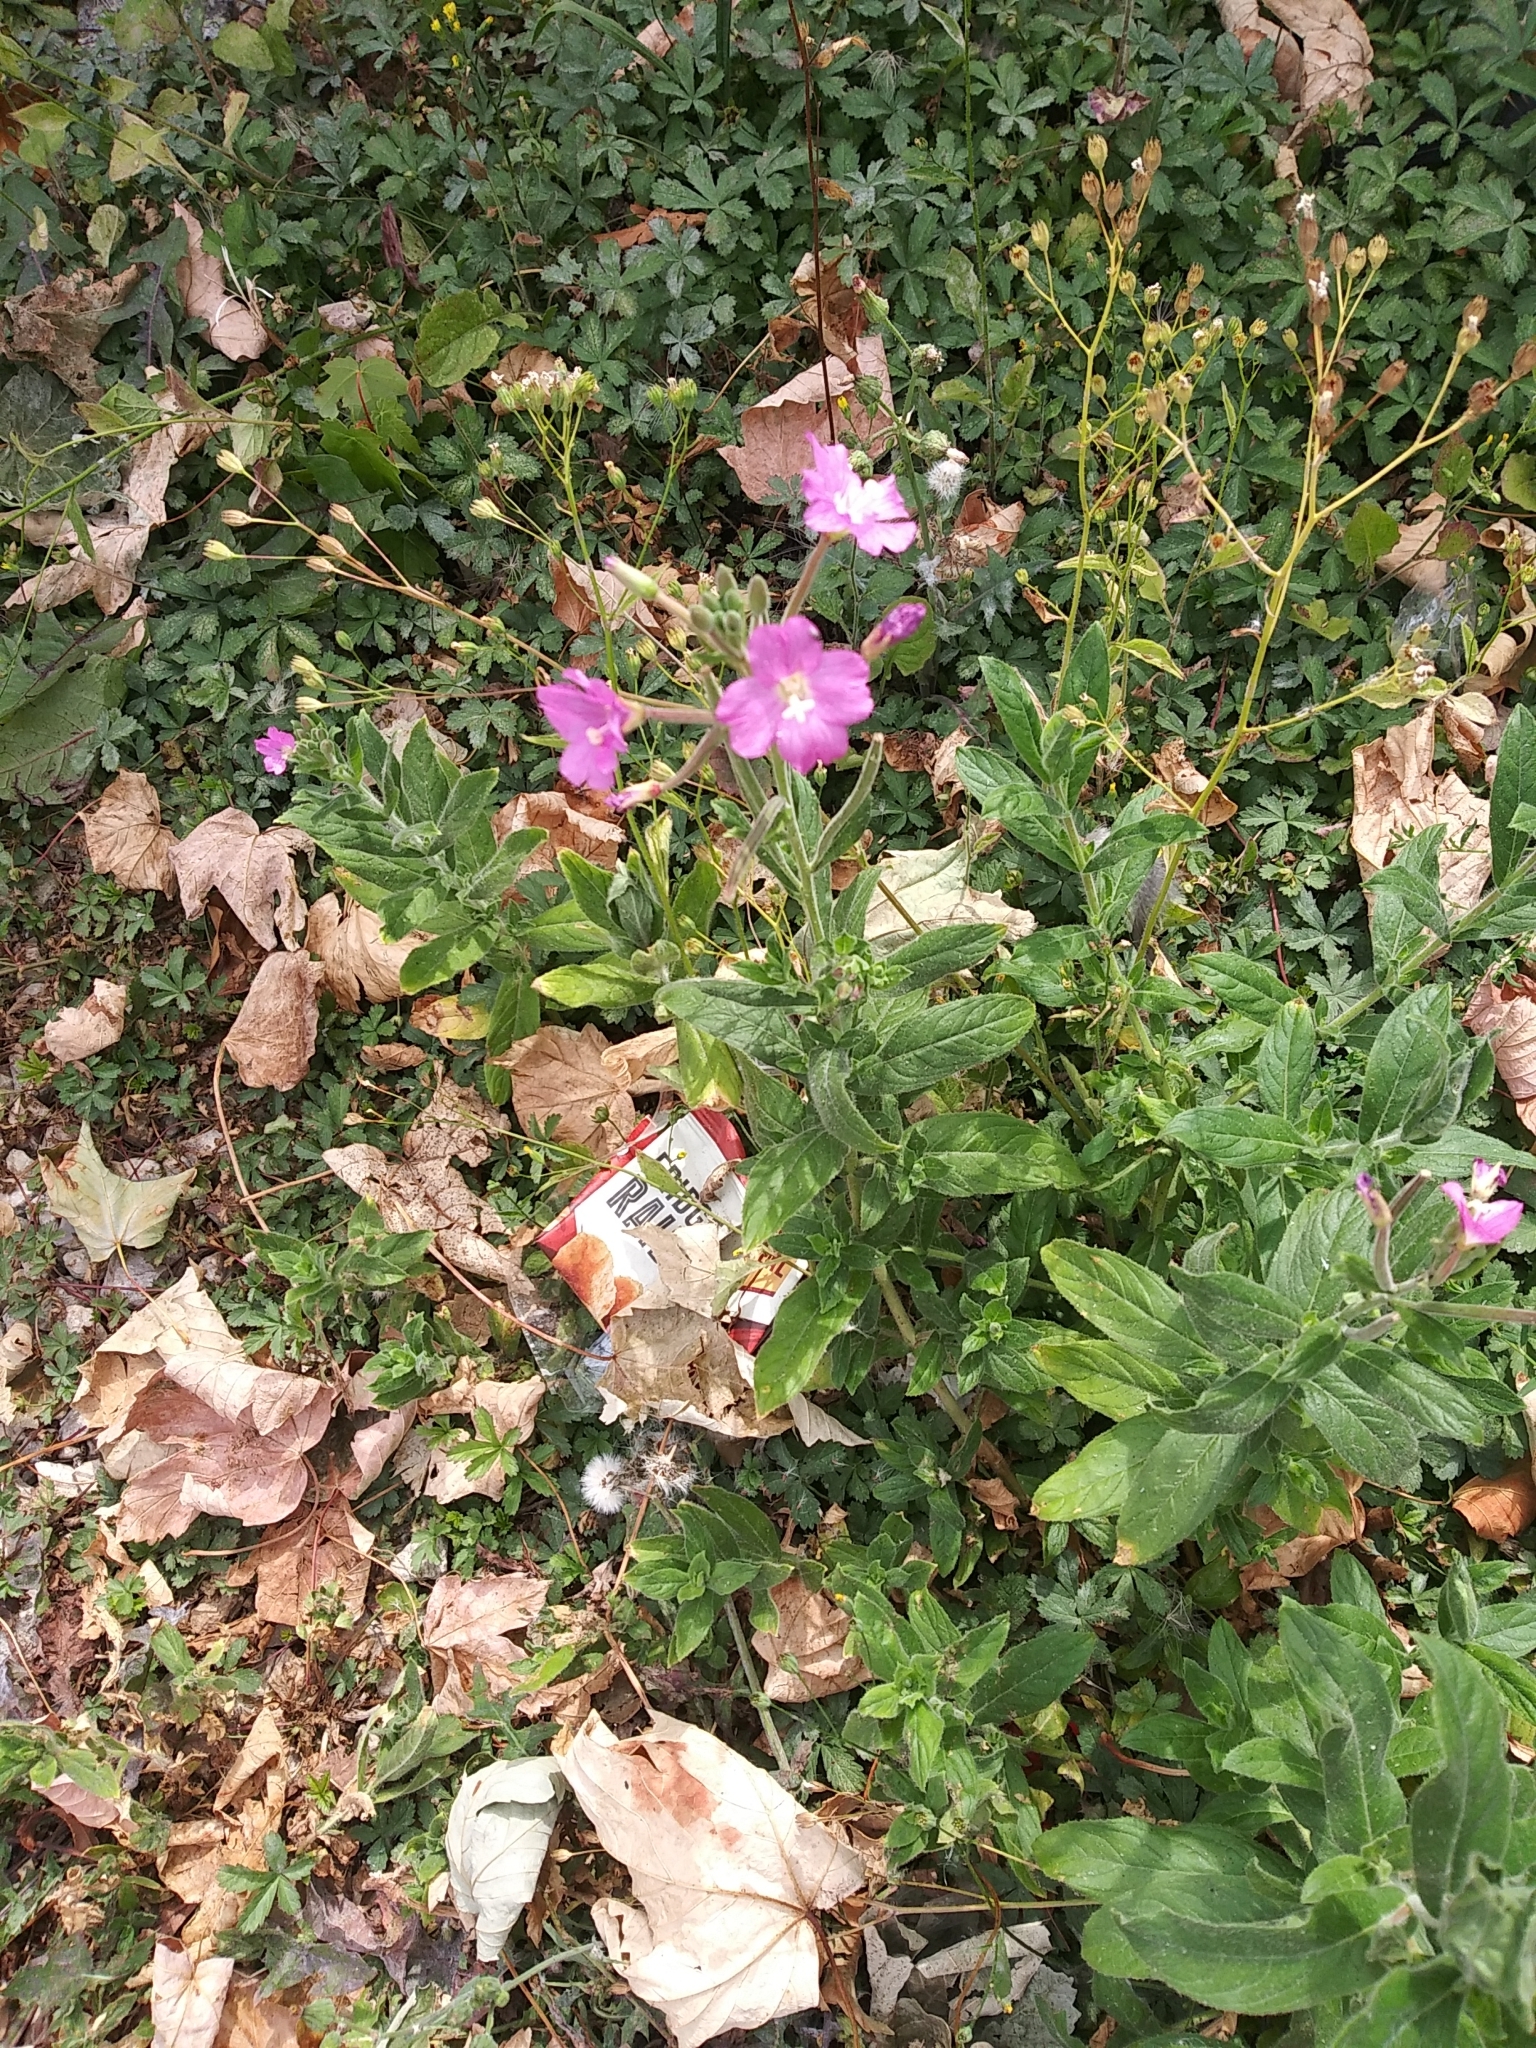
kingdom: Plantae
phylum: Tracheophyta
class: Magnoliopsida
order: Myrtales
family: Onagraceae
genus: Epilobium
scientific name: Epilobium hirsutum
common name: Great willowherb
